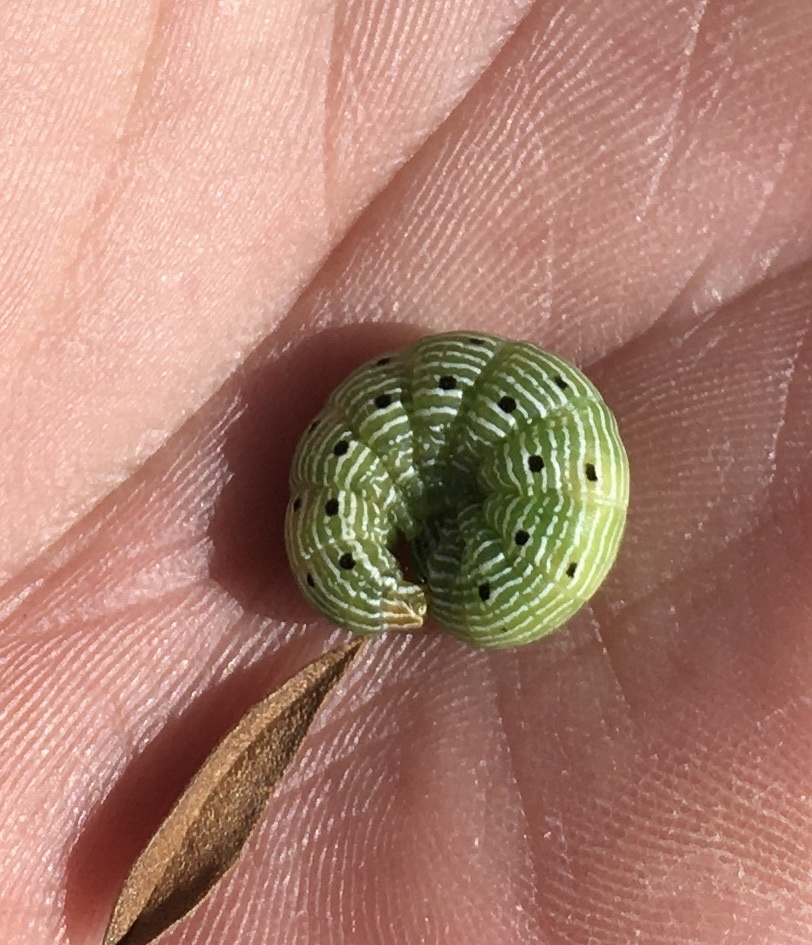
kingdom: Animalia
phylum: Arthropoda
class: Insecta
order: Lepidoptera
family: Noctuidae
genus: Schinia
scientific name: Schinia jaguarina
